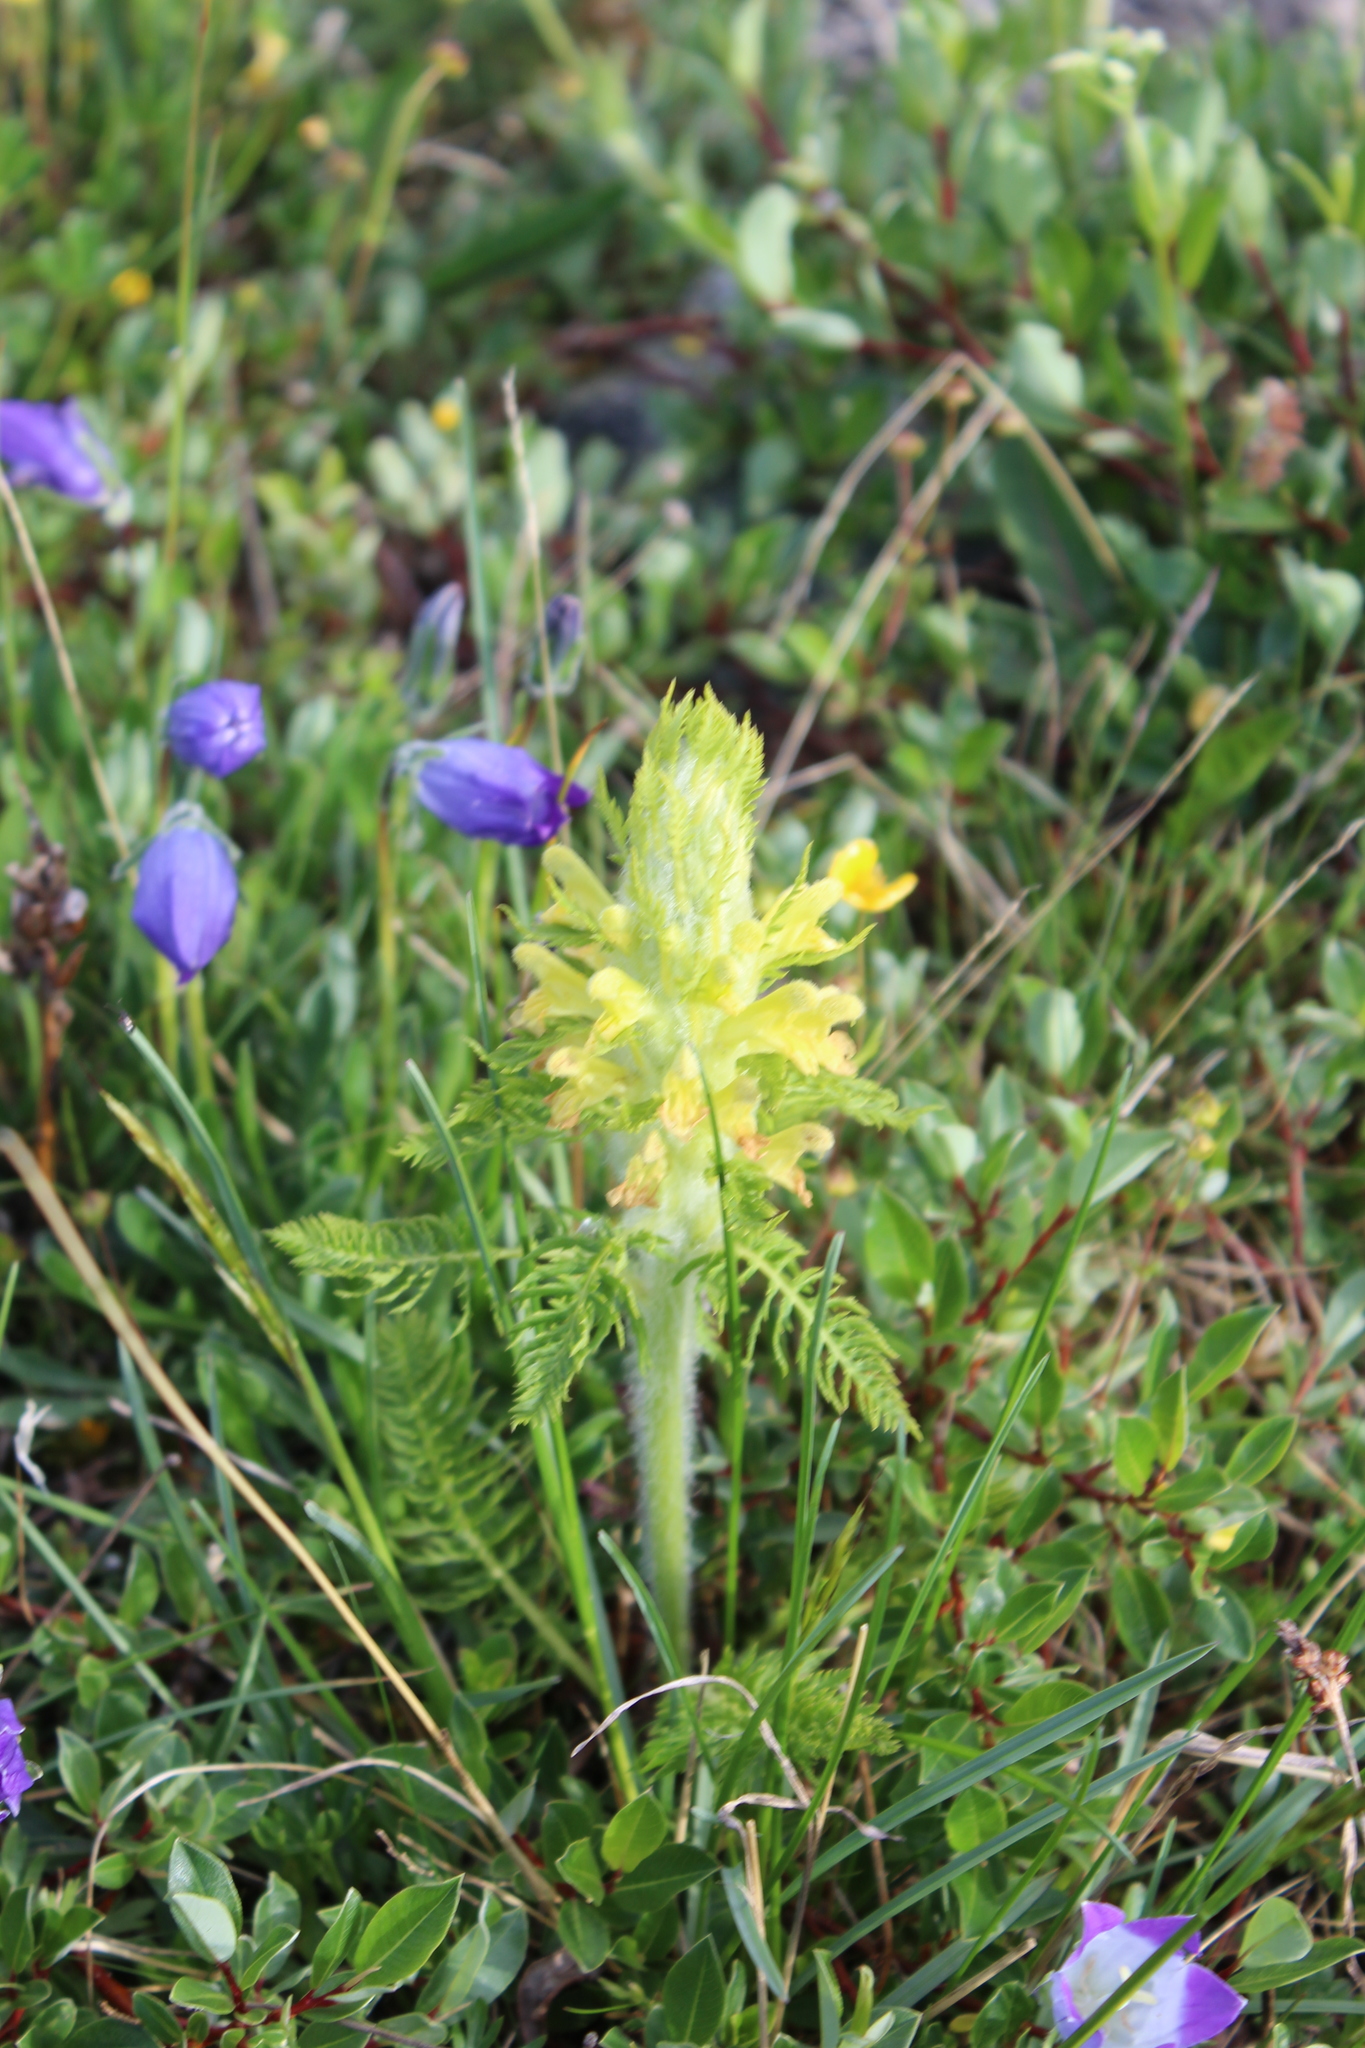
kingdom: Plantae
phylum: Tracheophyta
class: Magnoliopsida
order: Lamiales
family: Orobanchaceae
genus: Pedicularis
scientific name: Pedicularis condensata
